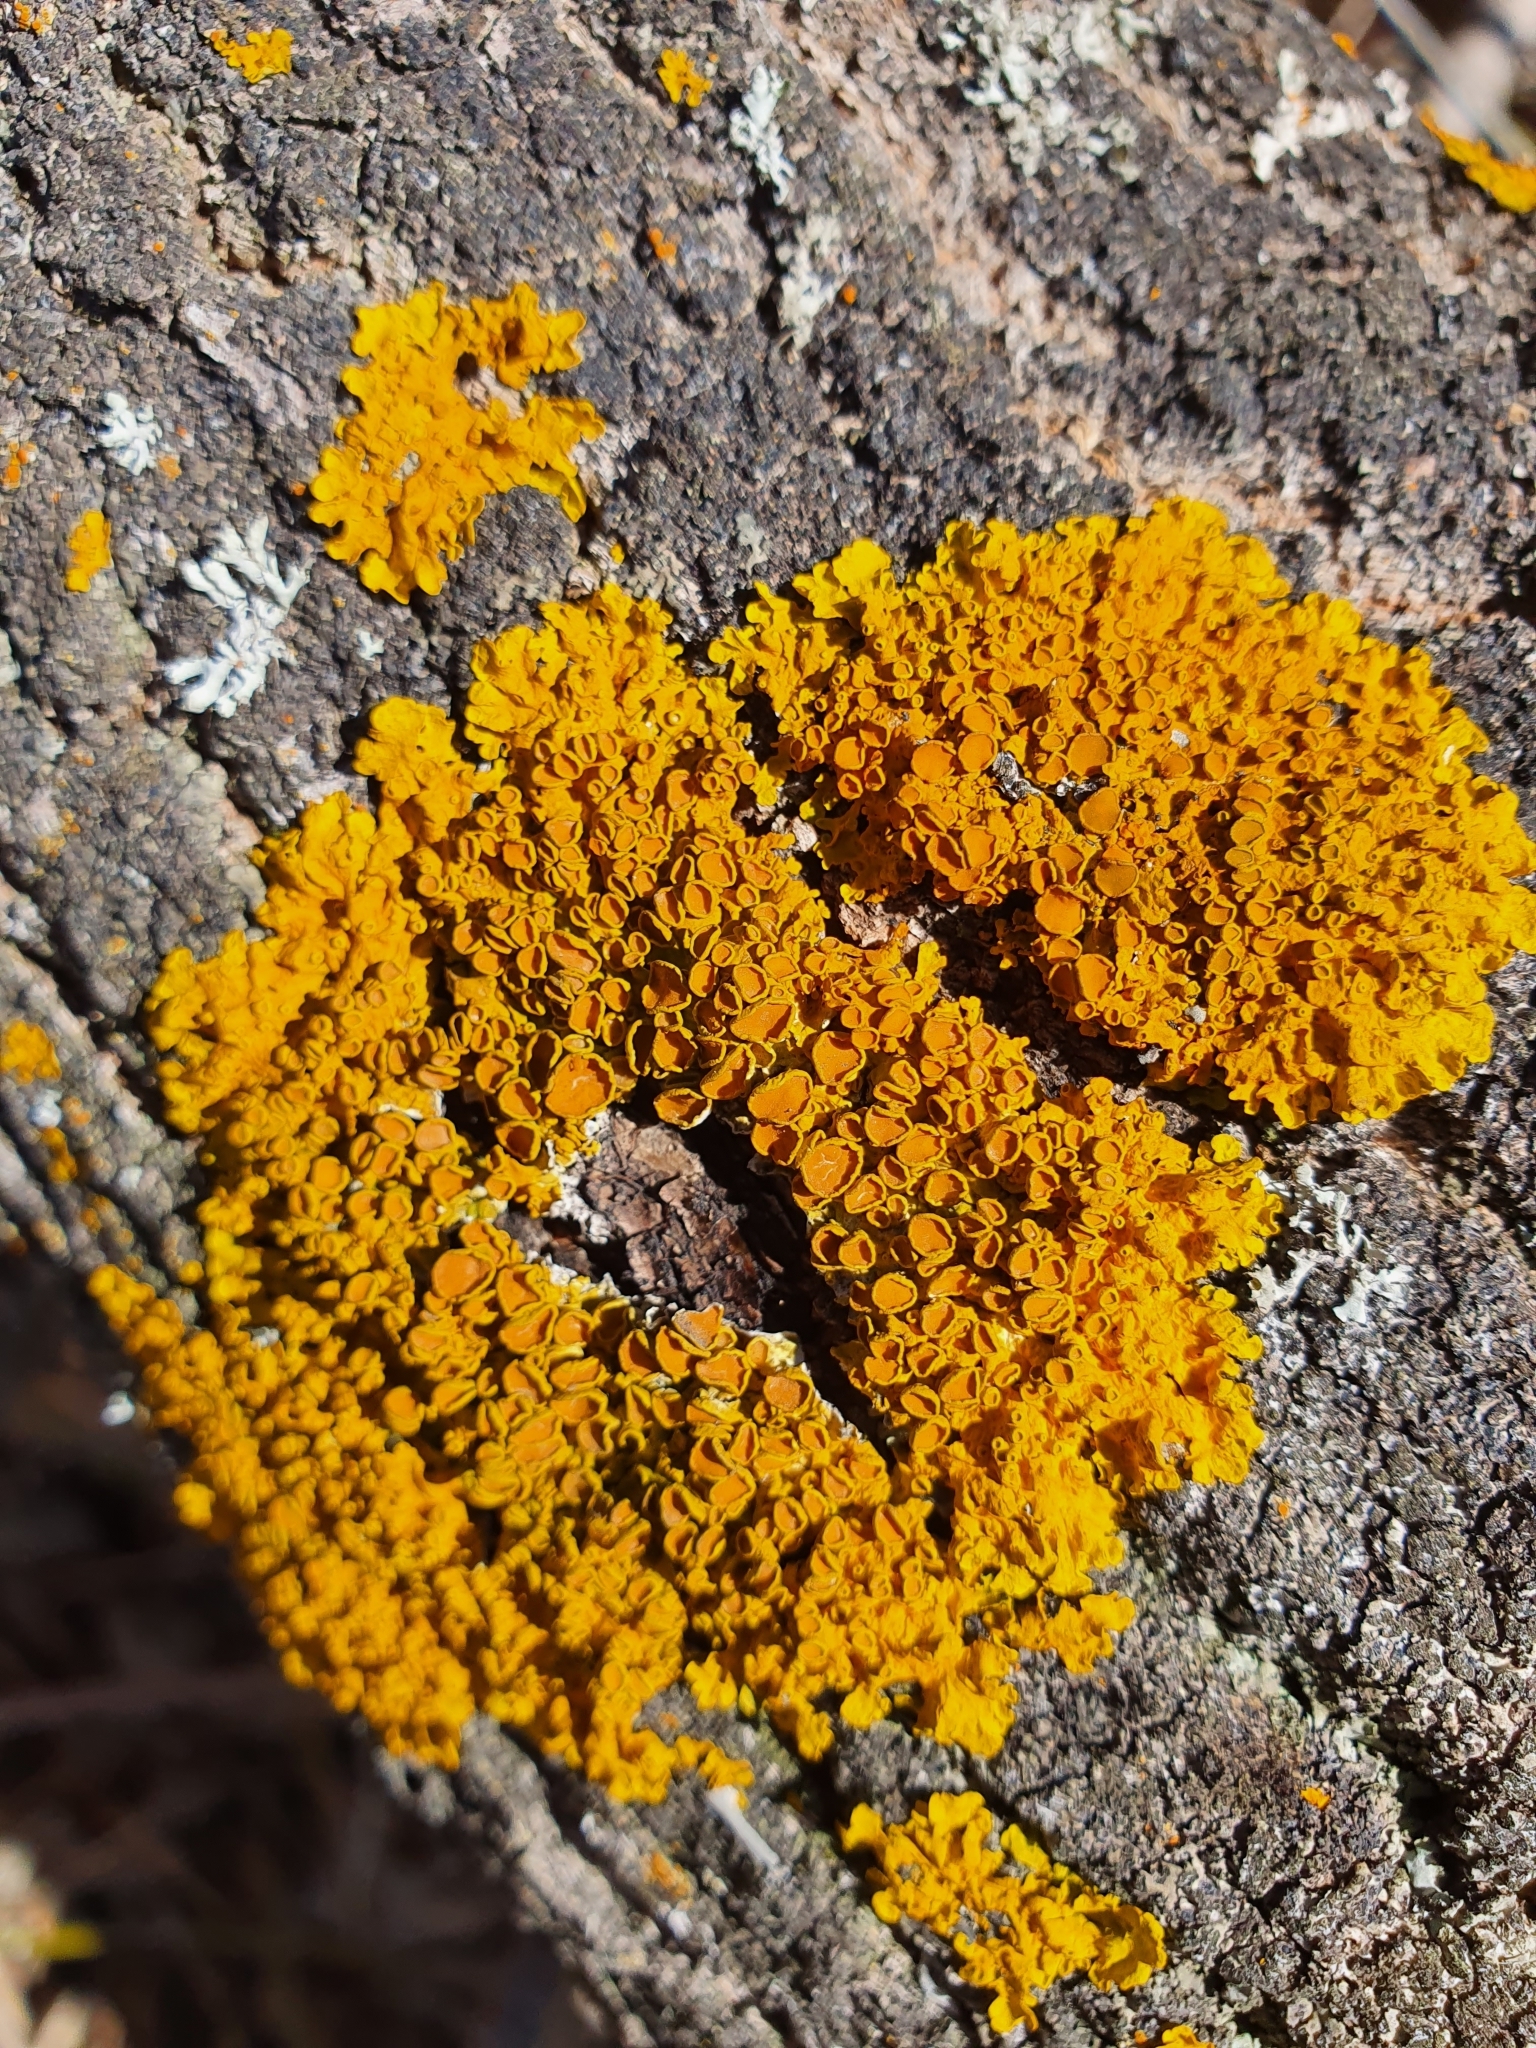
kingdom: Fungi
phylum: Ascomycota
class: Lecanoromycetes
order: Teloschistales
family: Teloschistaceae
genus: Xanthoria
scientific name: Xanthoria parietina
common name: Common orange lichen
